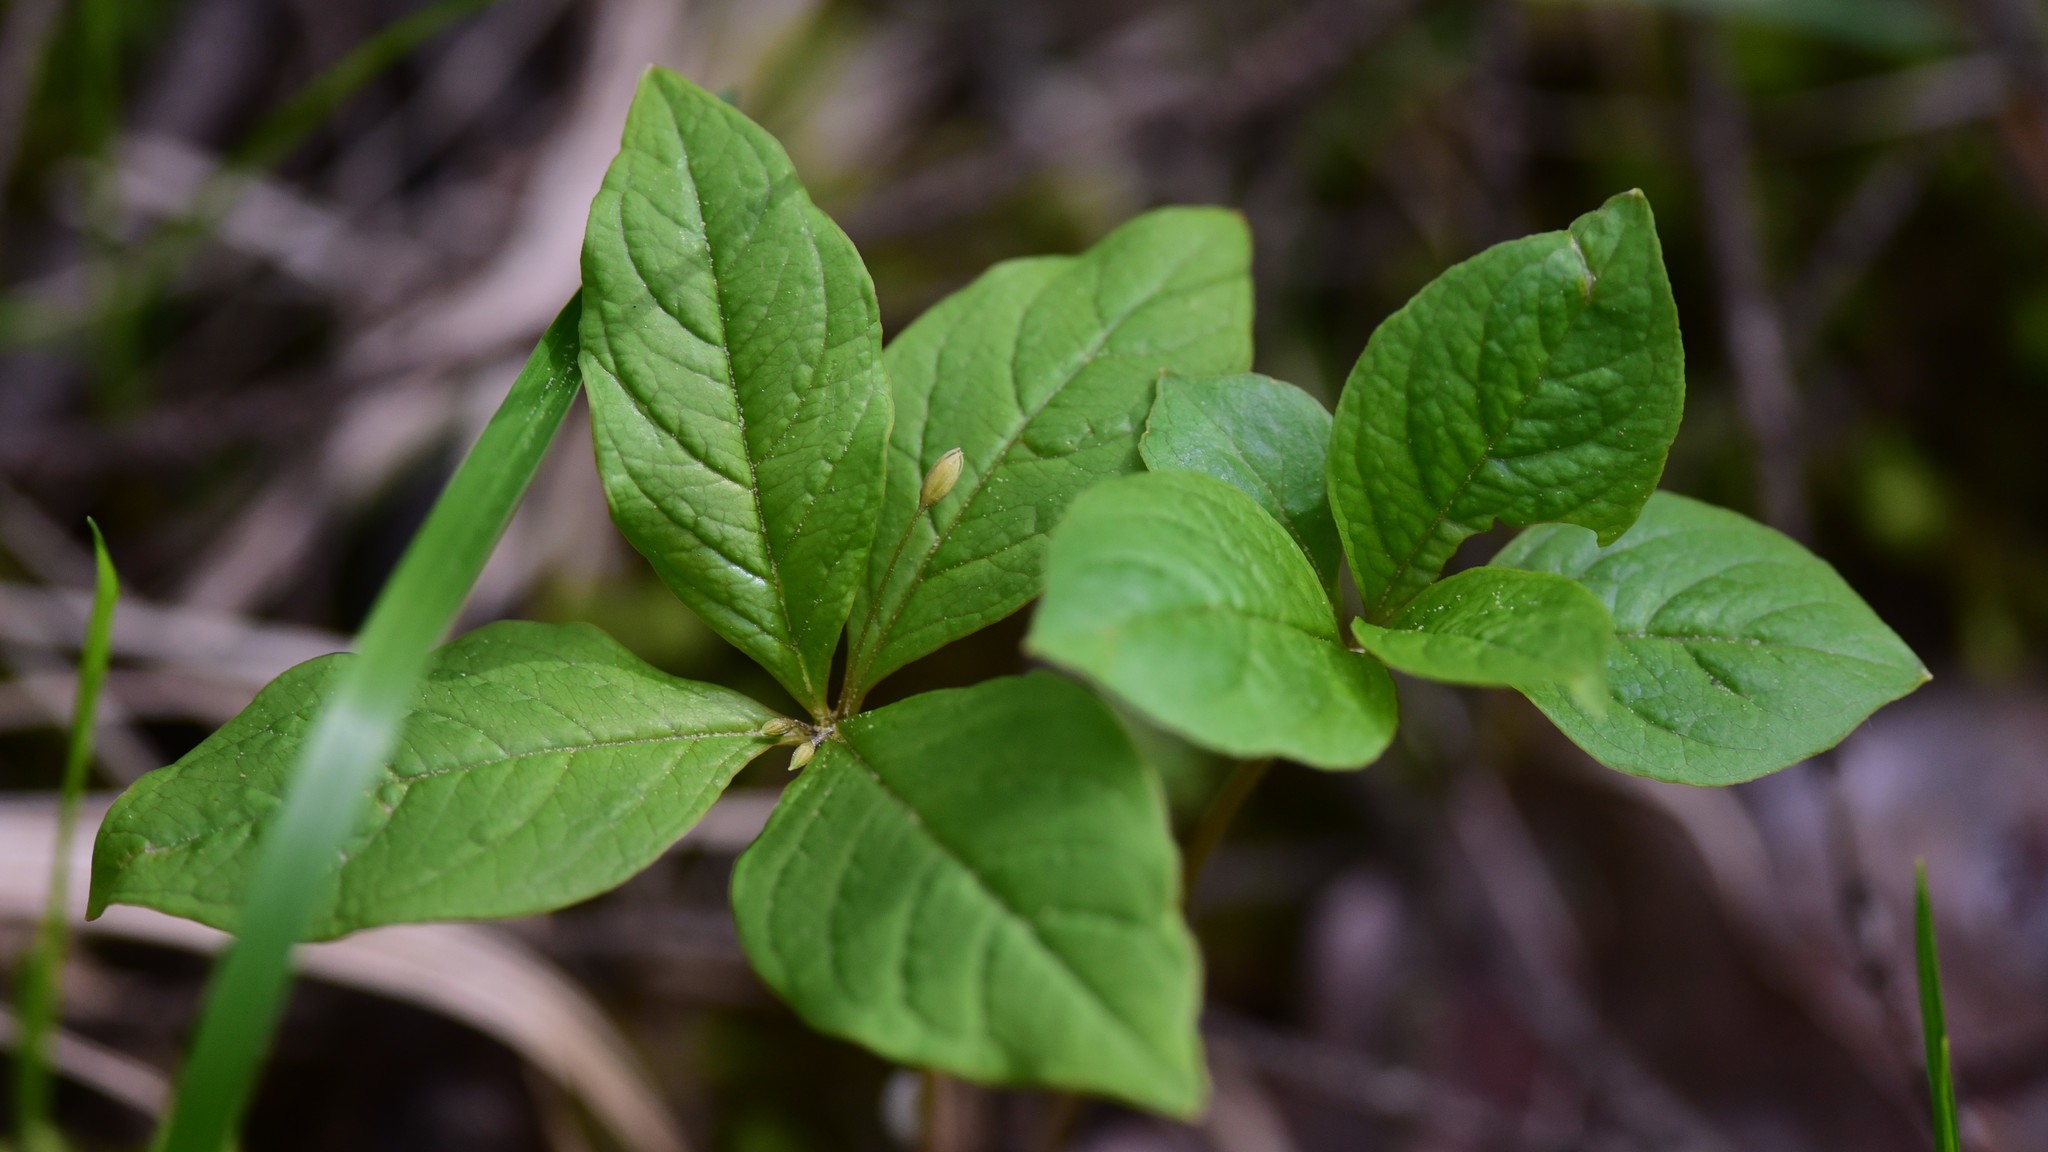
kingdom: Plantae
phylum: Tracheophyta
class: Magnoliopsida
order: Ericales
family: Primulaceae
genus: Lysimachia
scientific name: Lysimachia latifolia
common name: Pacific starflower
